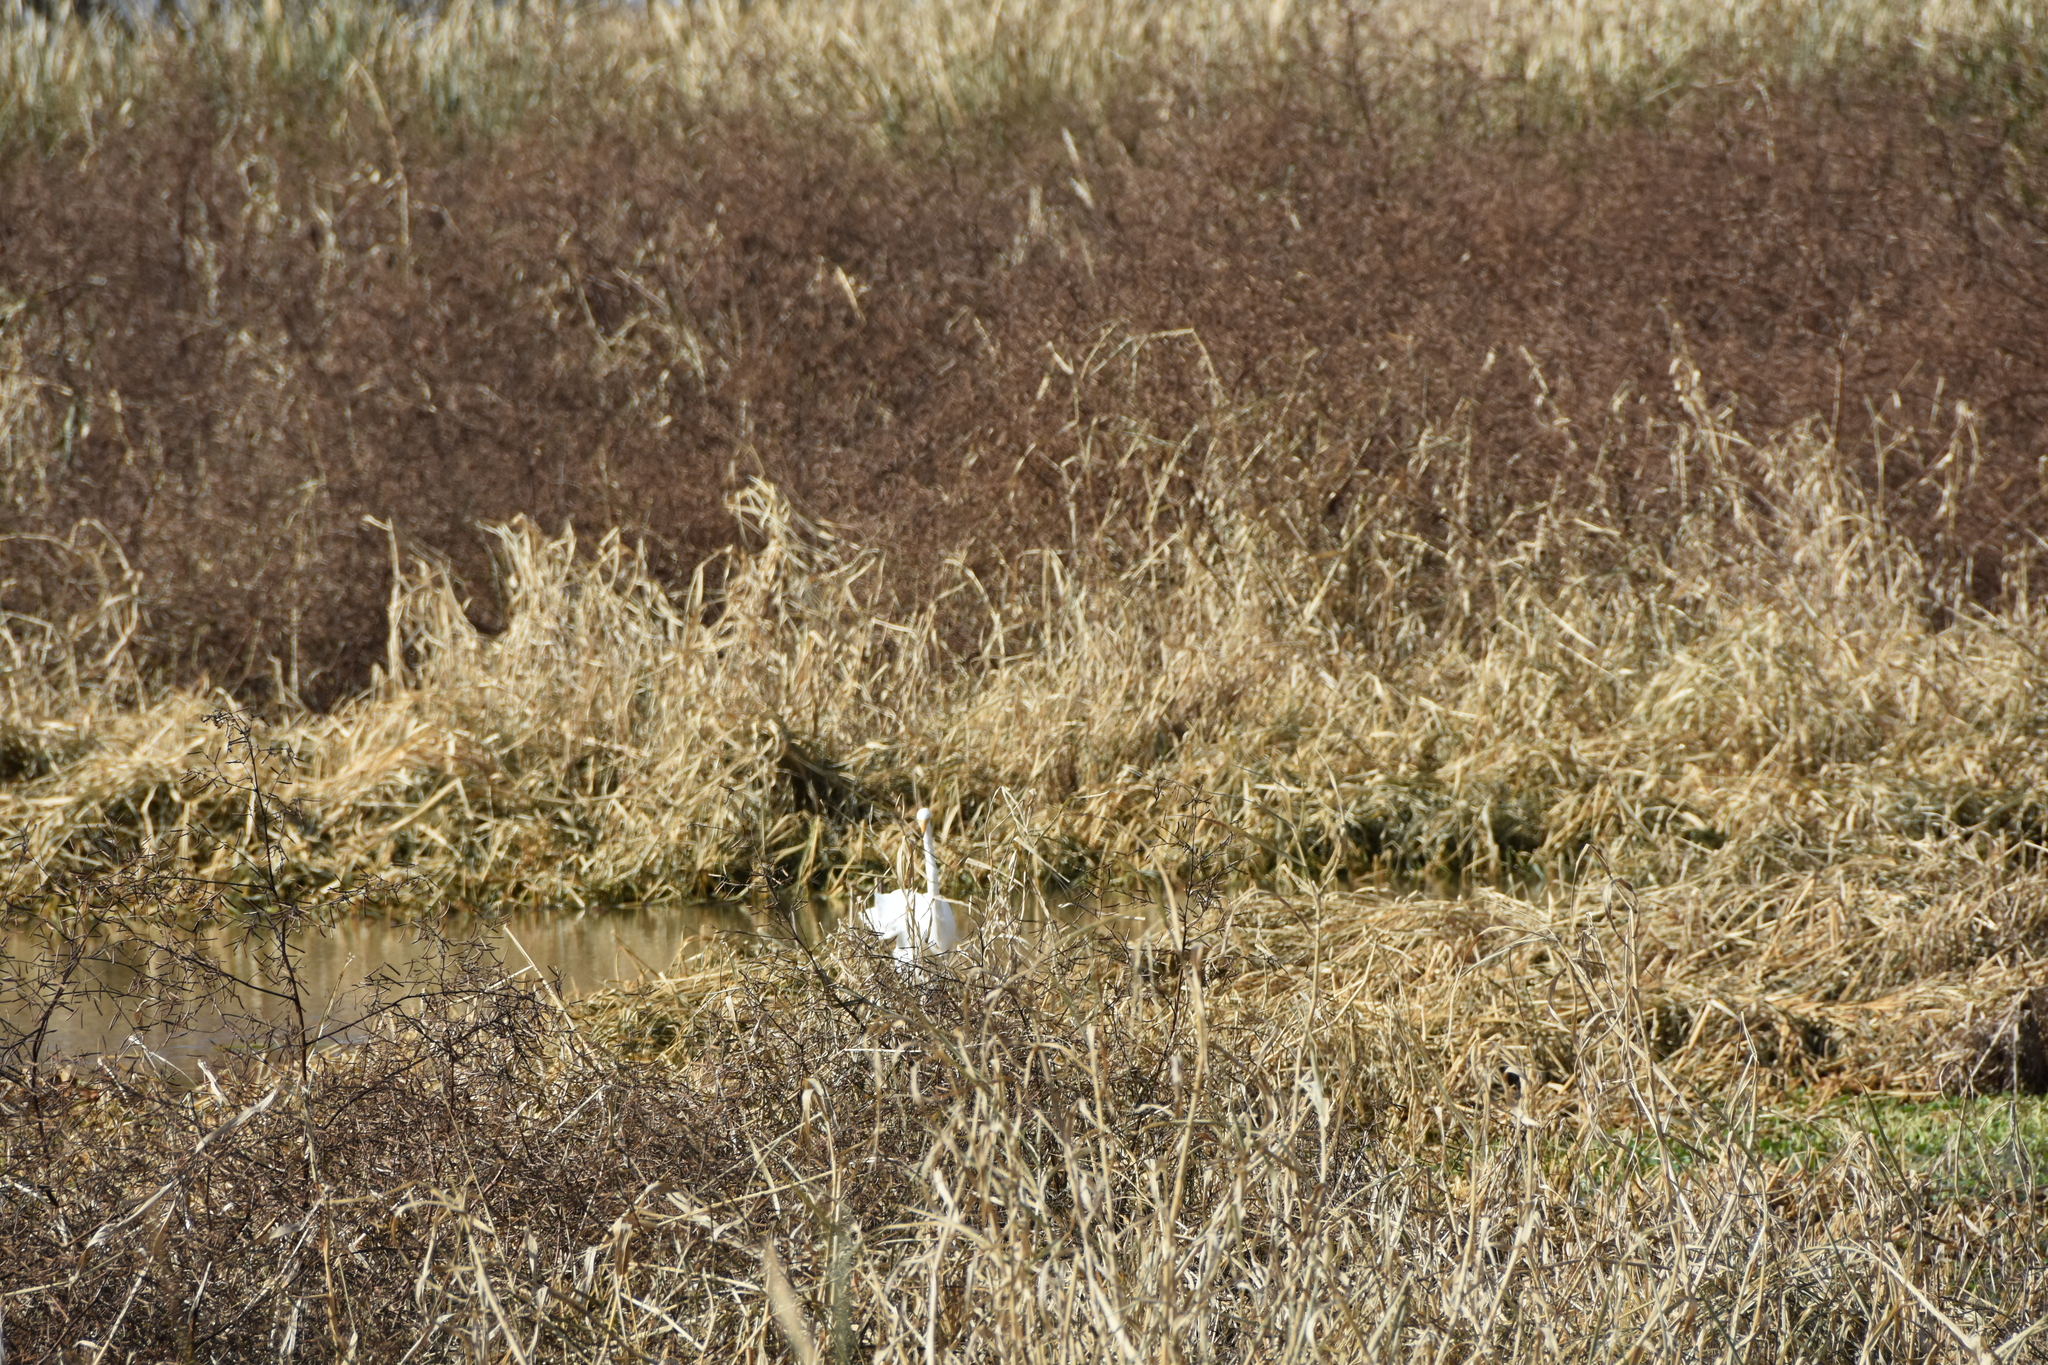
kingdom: Animalia
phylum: Chordata
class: Aves
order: Pelecaniformes
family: Ardeidae
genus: Ardea
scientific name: Ardea alba
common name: Great egret
